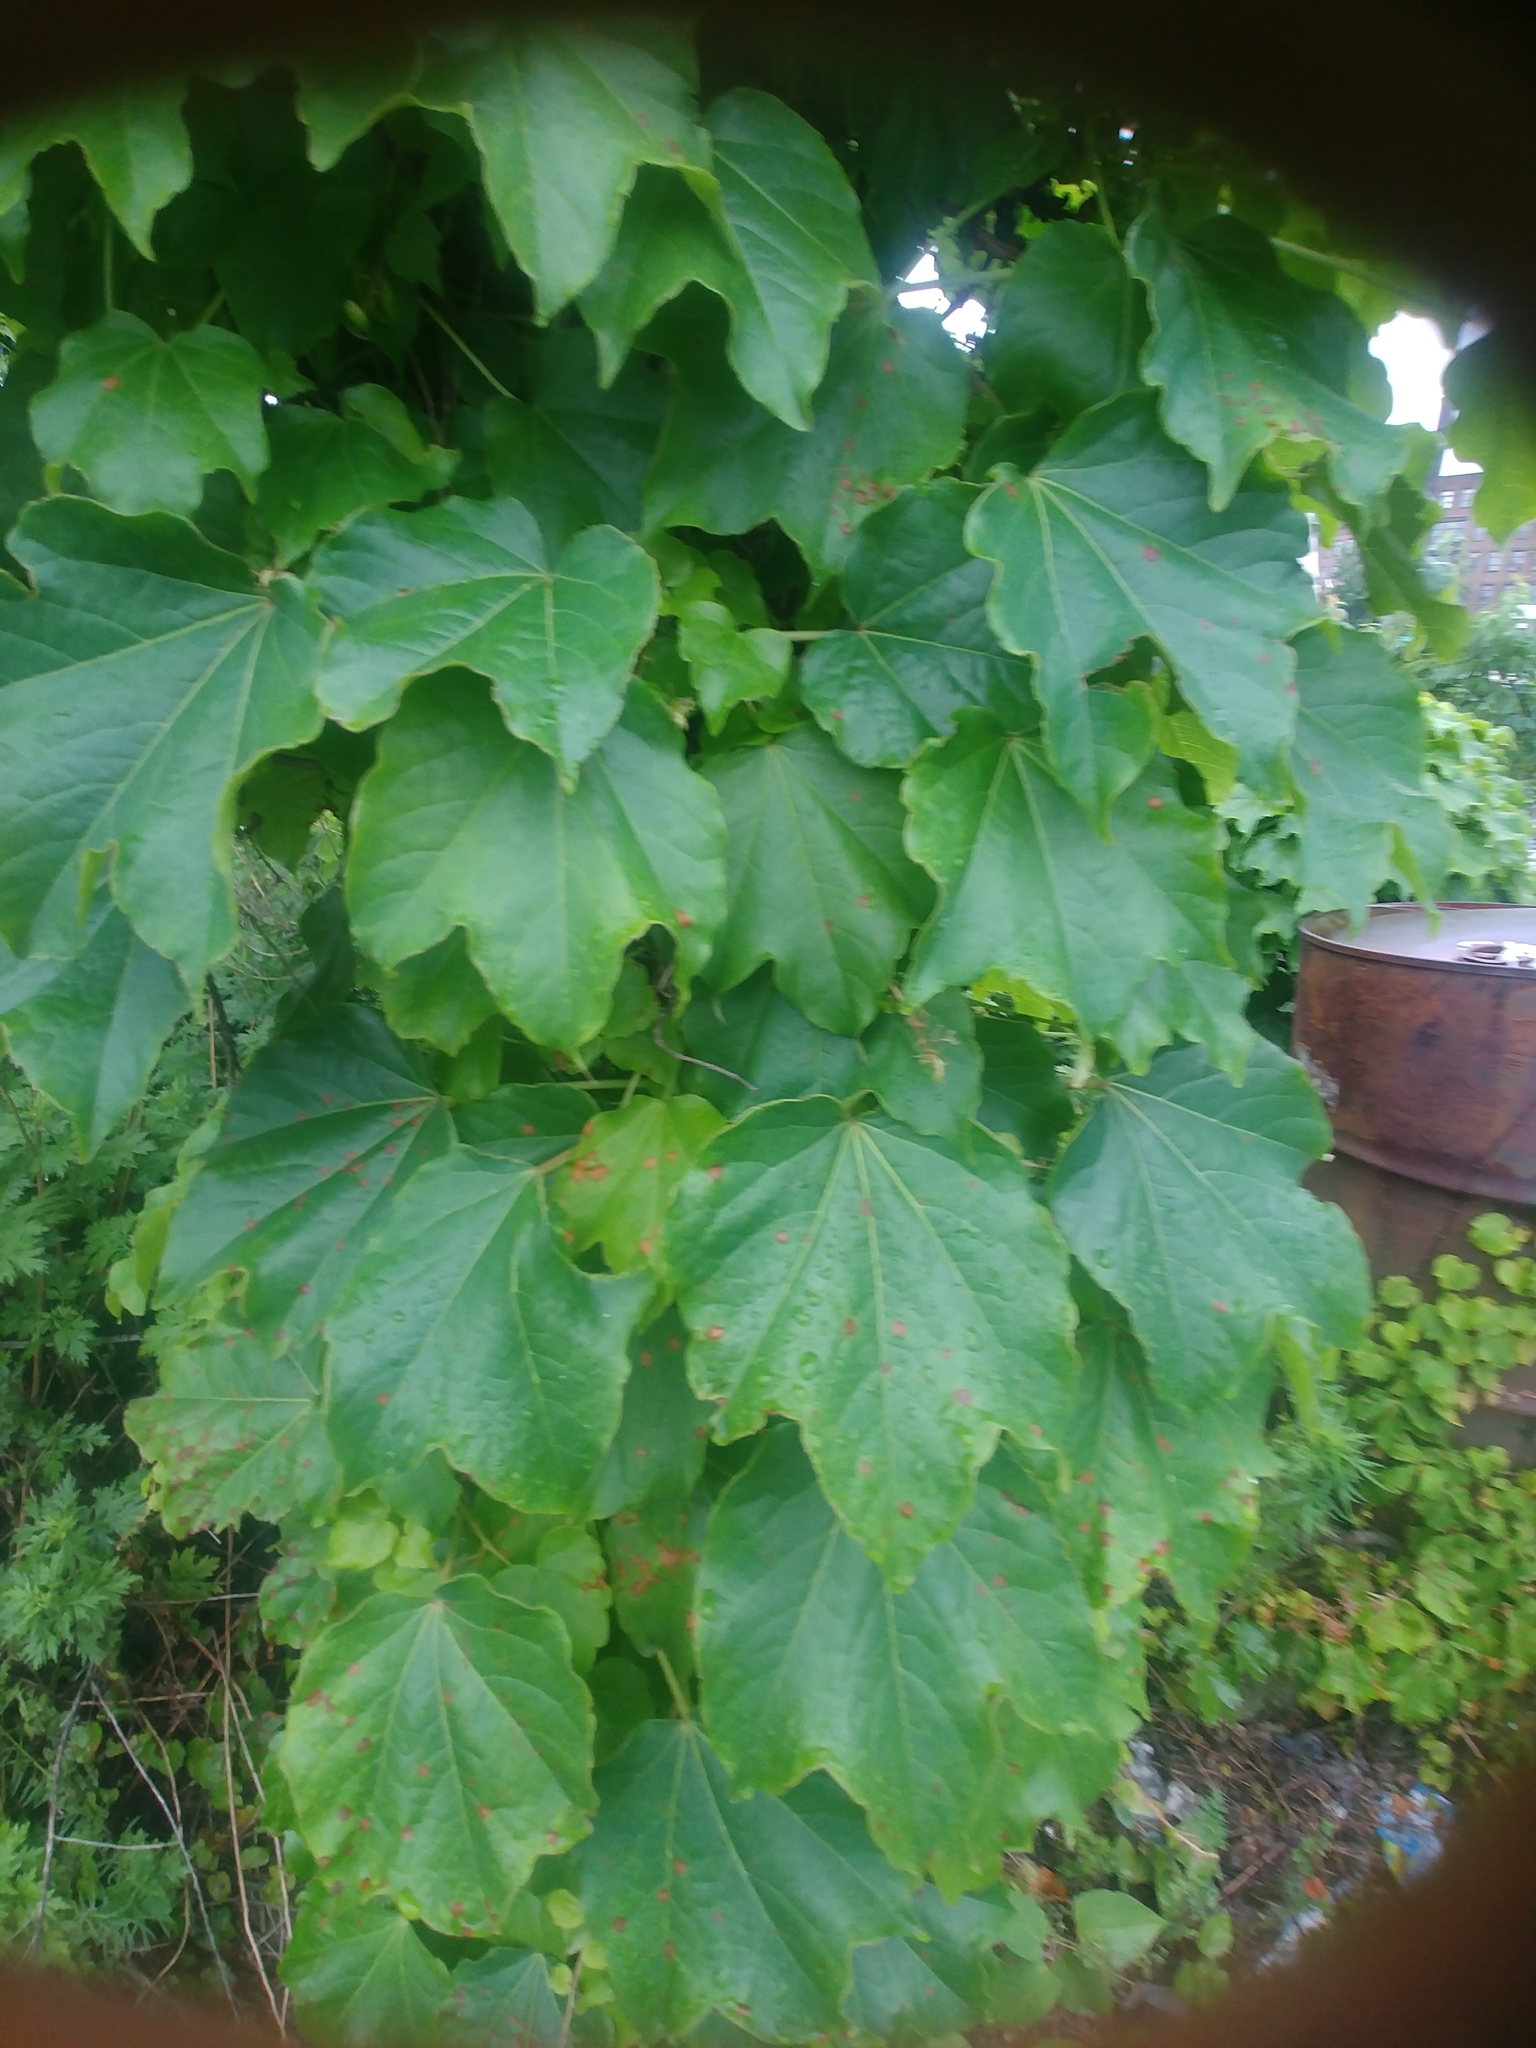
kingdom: Plantae
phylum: Tracheophyta
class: Magnoliopsida
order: Vitales
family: Vitaceae
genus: Parthenocissus
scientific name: Parthenocissus tricuspidata
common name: Boston ivy
